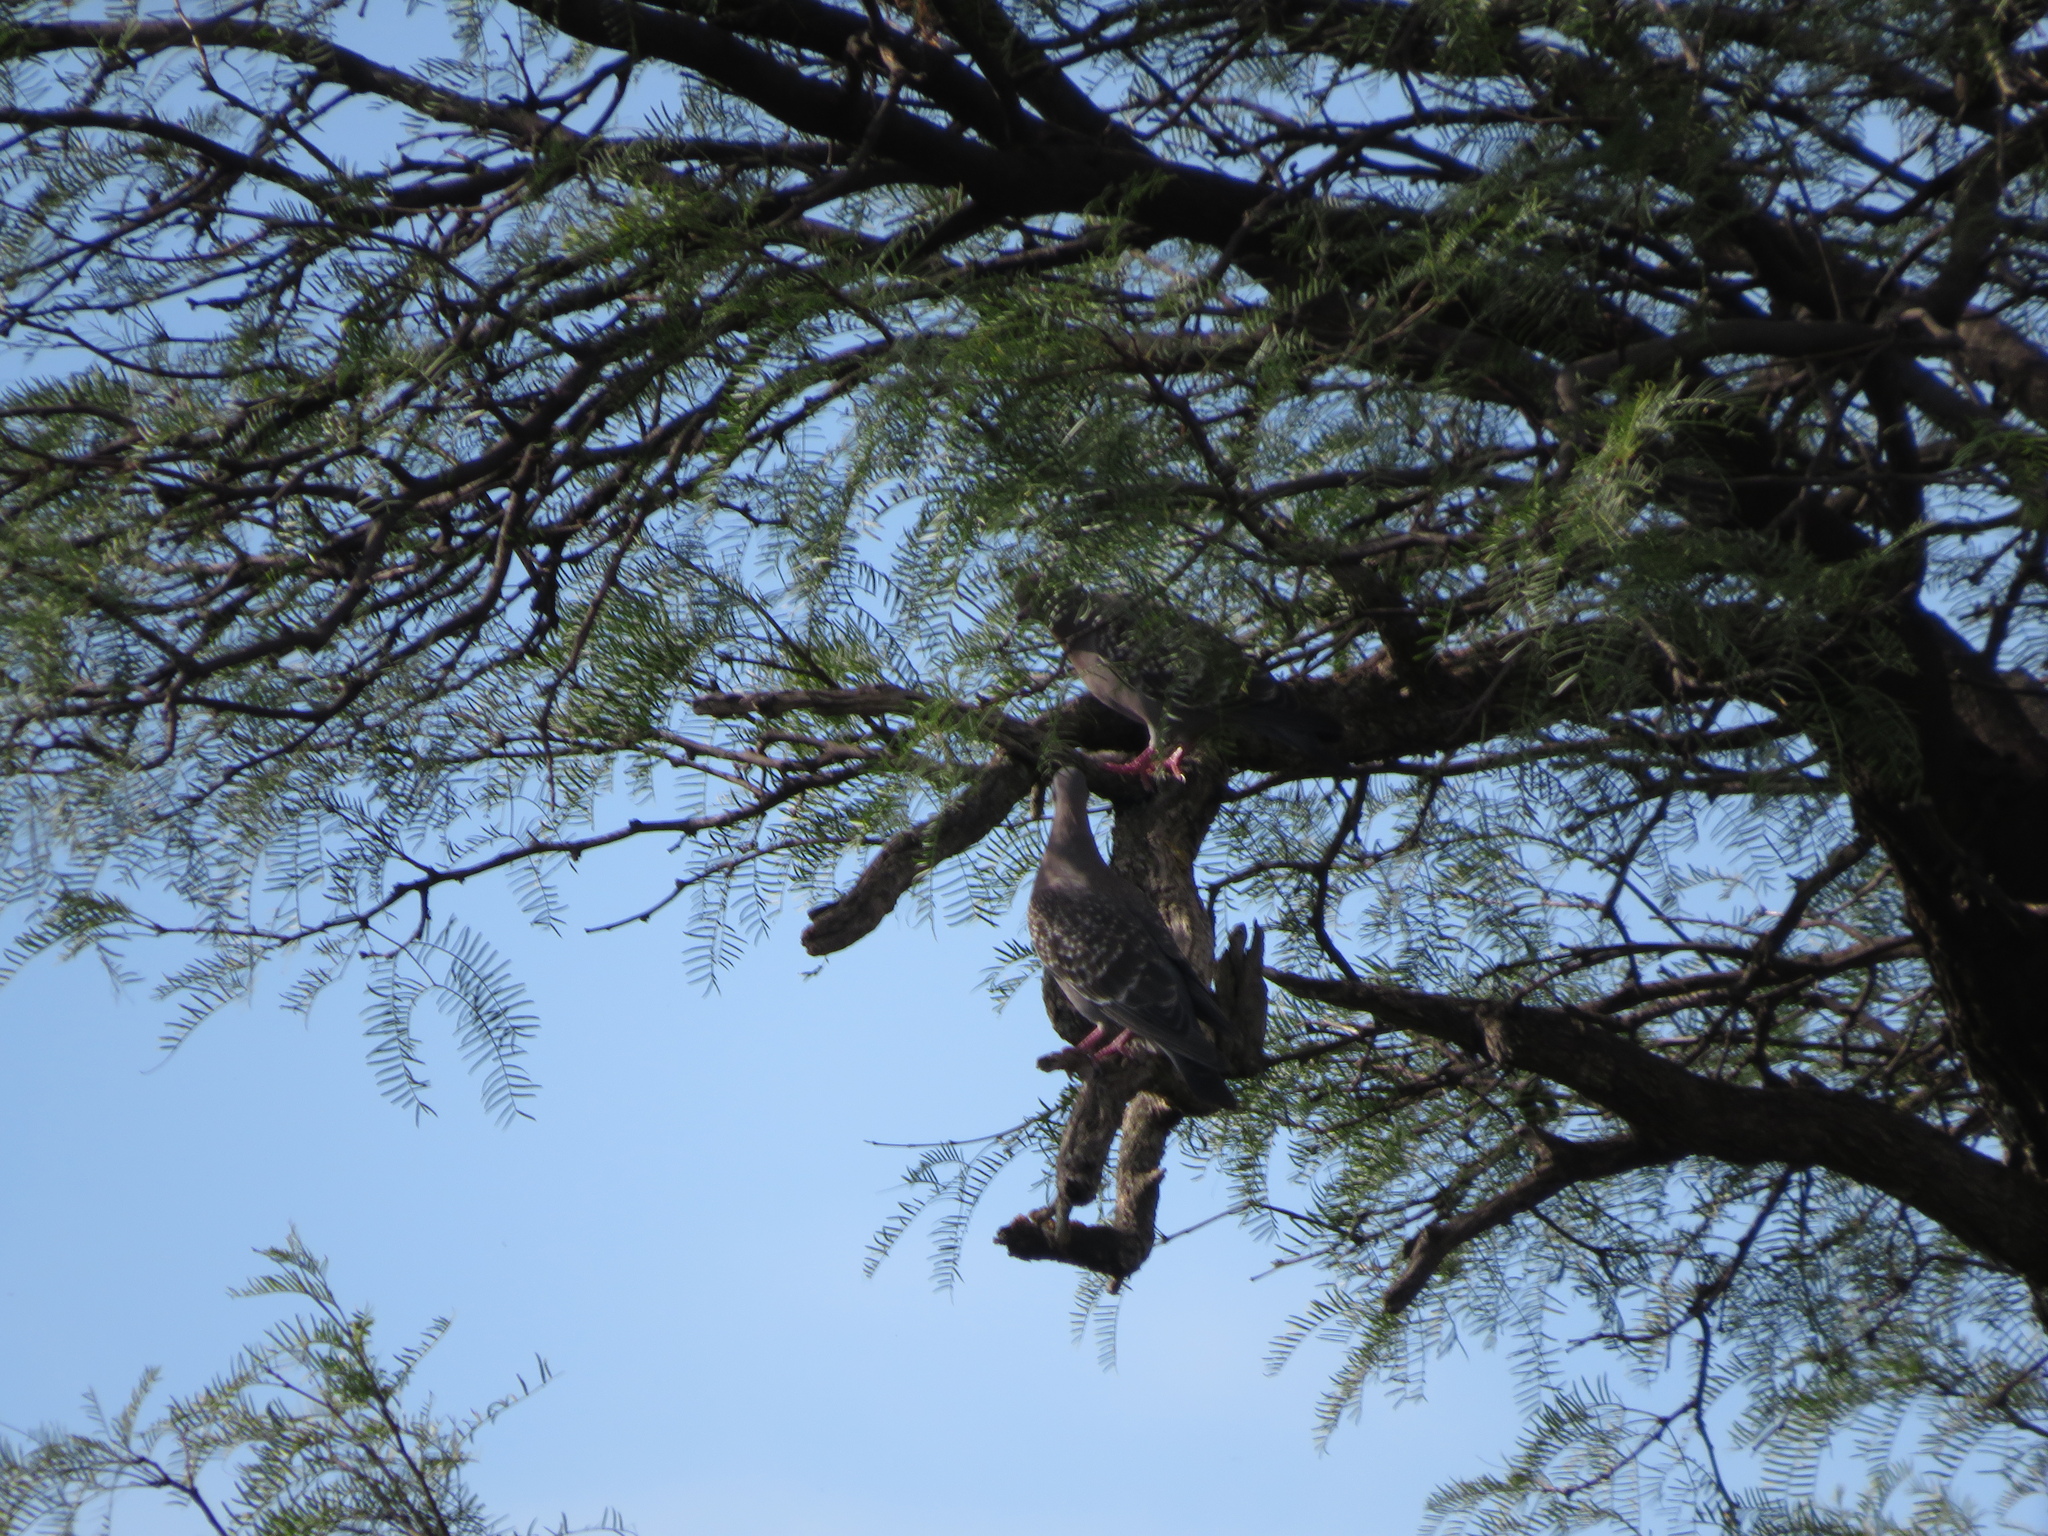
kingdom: Animalia
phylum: Chordata
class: Aves
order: Columbiformes
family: Columbidae
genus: Patagioenas
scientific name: Patagioenas maculosa
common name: Spot-winged pigeon
